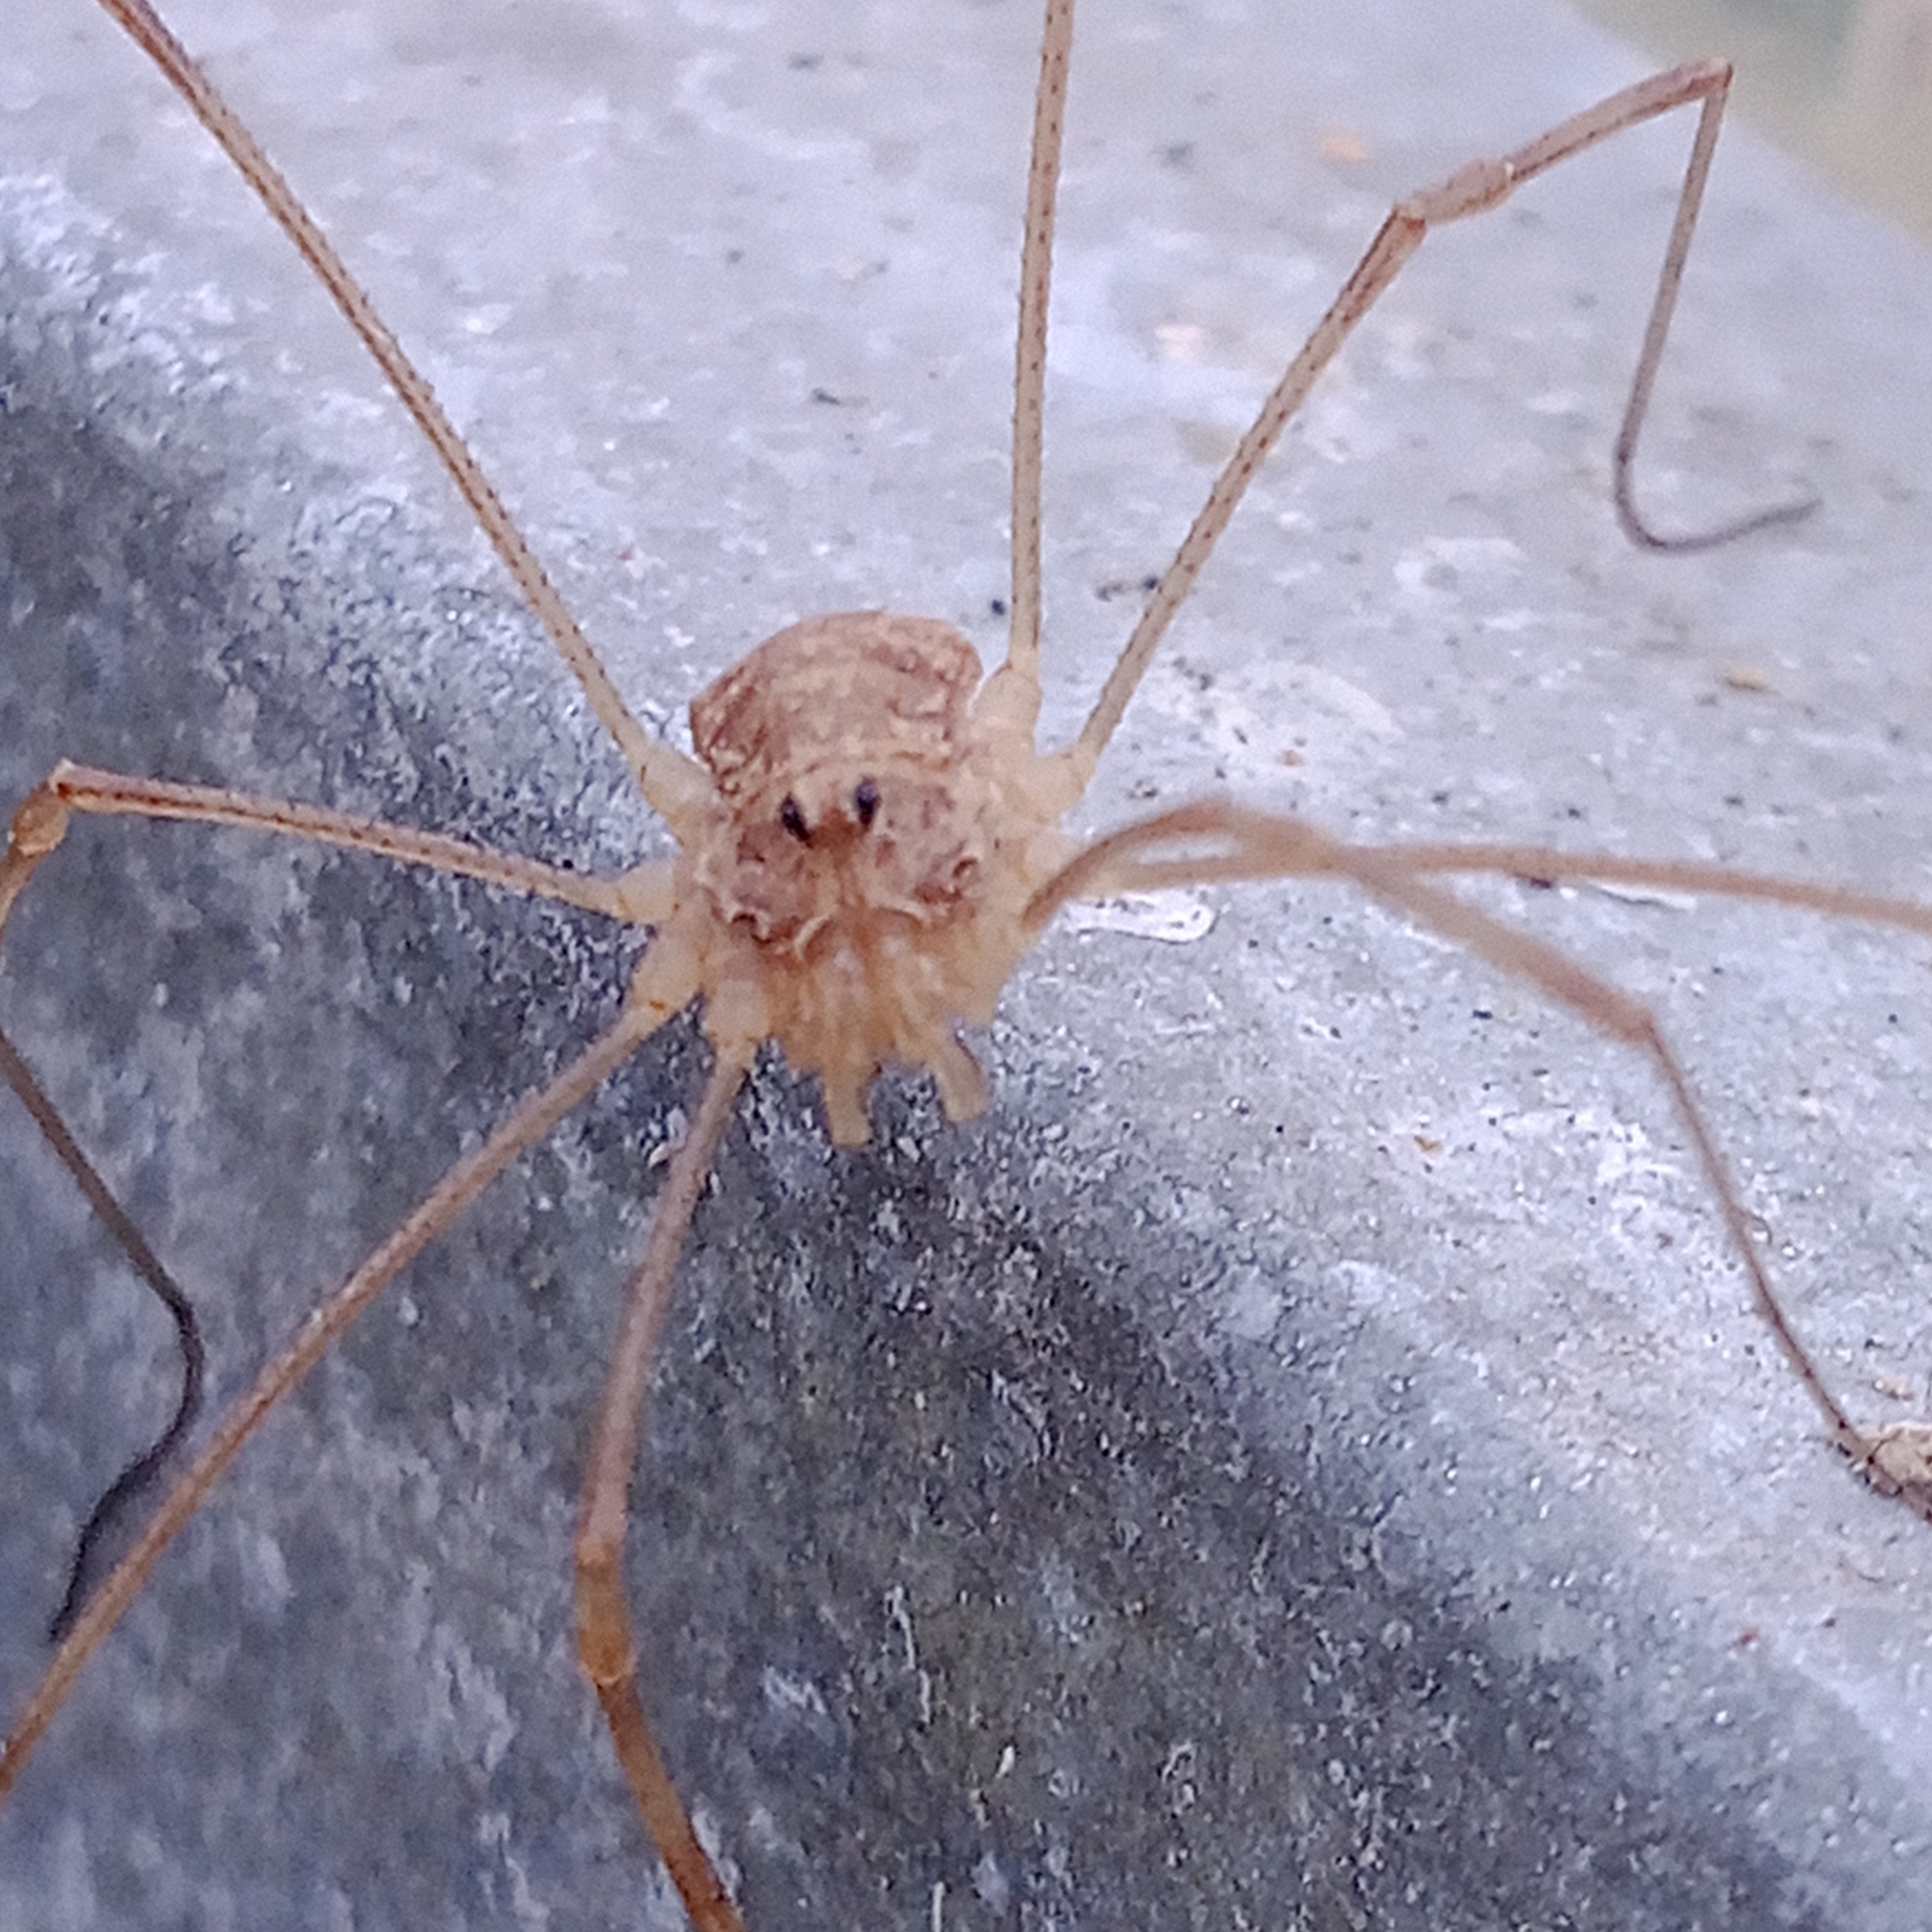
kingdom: Animalia
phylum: Arthropoda
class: Arachnida
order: Opiliones
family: Phalangiidae
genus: Rilaena
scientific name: Rilaena triangularis
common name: Spring harvestman
